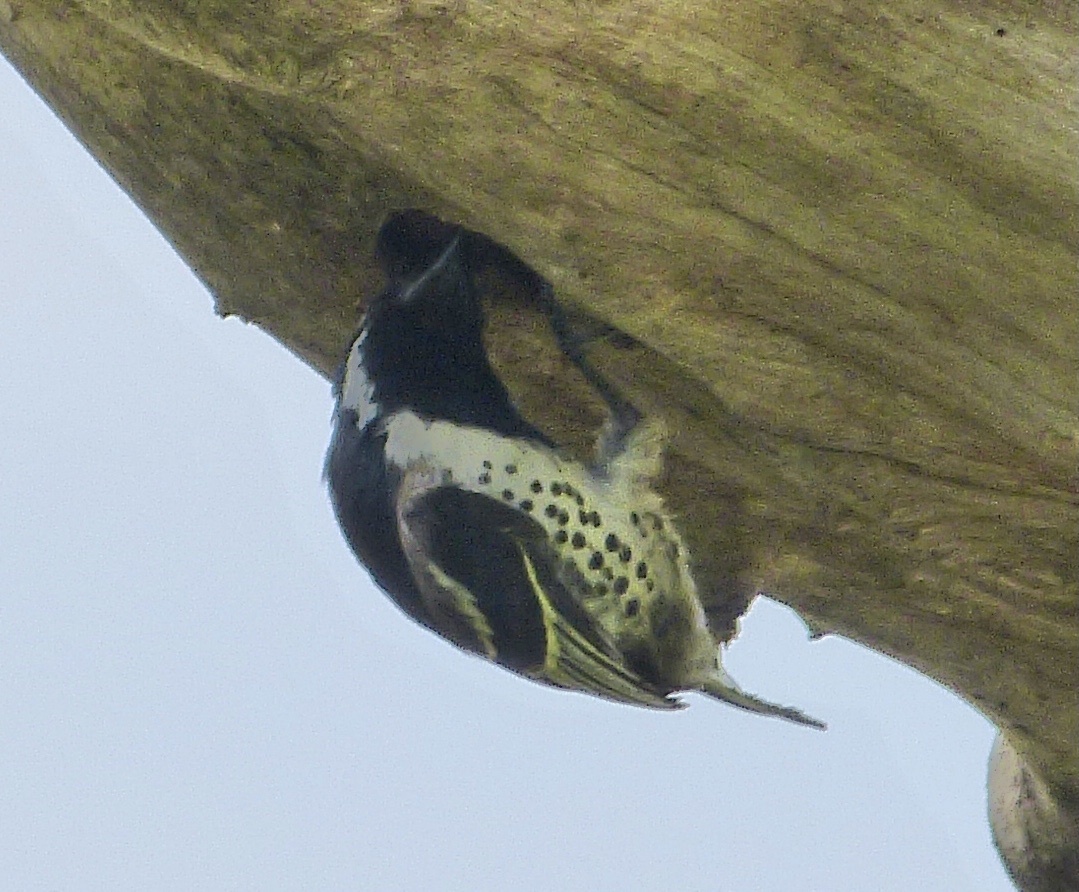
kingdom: Animalia
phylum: Chordata
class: Aves
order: Piciformes
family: Lybiidae
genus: Tricholaema
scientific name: Tricholaema lacrymosa
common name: Spot-flanked barbet
